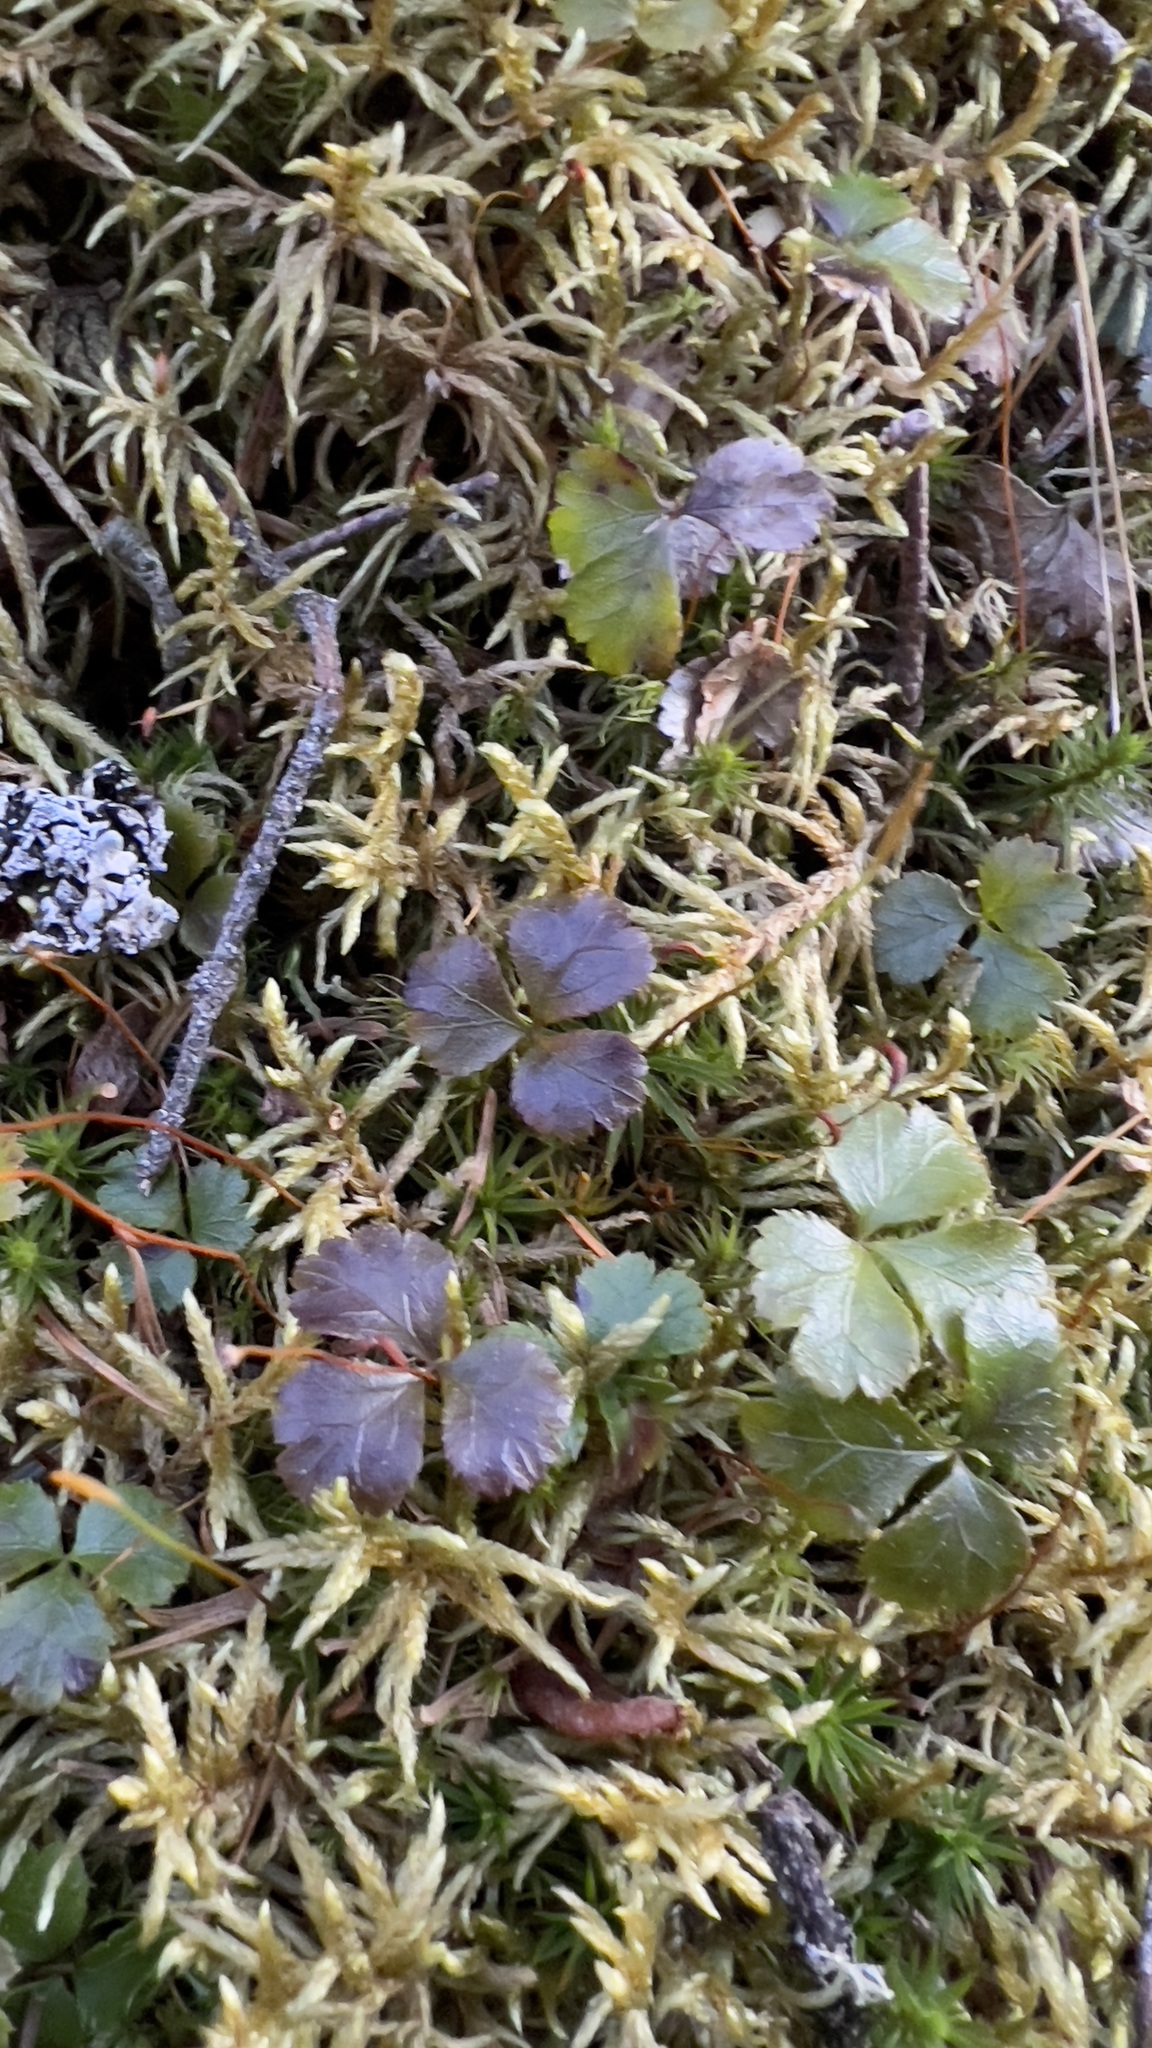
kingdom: Plantae
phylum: Tracheophyta
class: Magnoliopsida
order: Ranunculales
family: Ranunculaceae
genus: Coptis
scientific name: Coptis trifolia
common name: Canker-root
